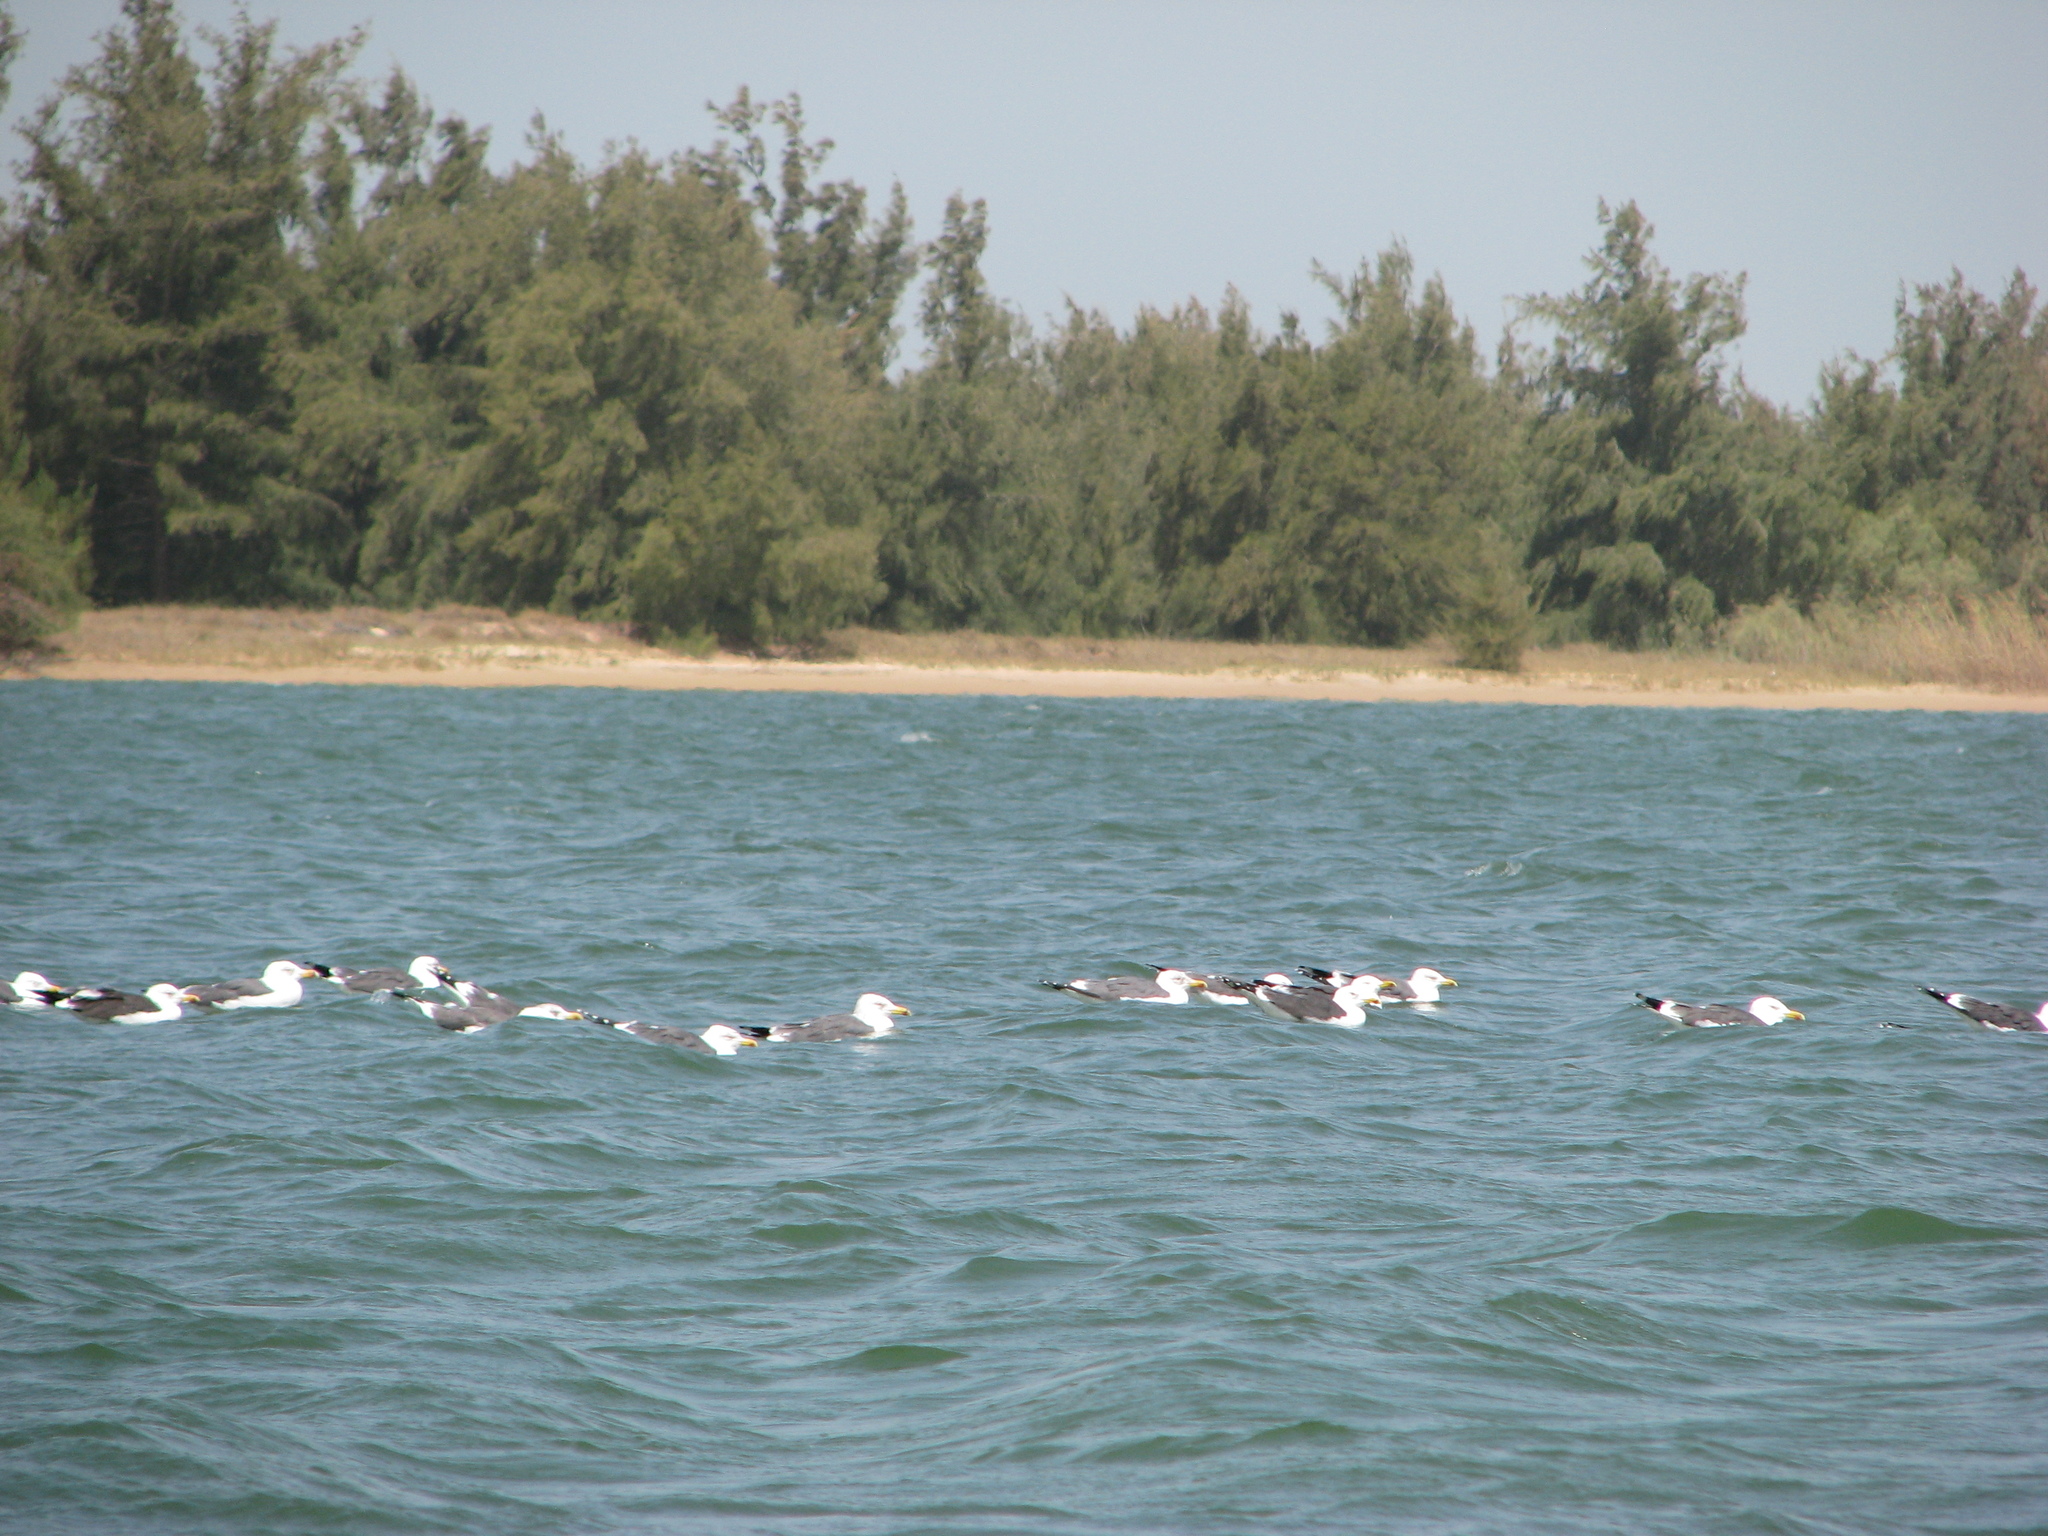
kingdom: Animalia
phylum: Chordata
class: Aves
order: Charadriiformes
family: Laridae
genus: Larus
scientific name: Larus fuscus
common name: Lesser black-backed gull
